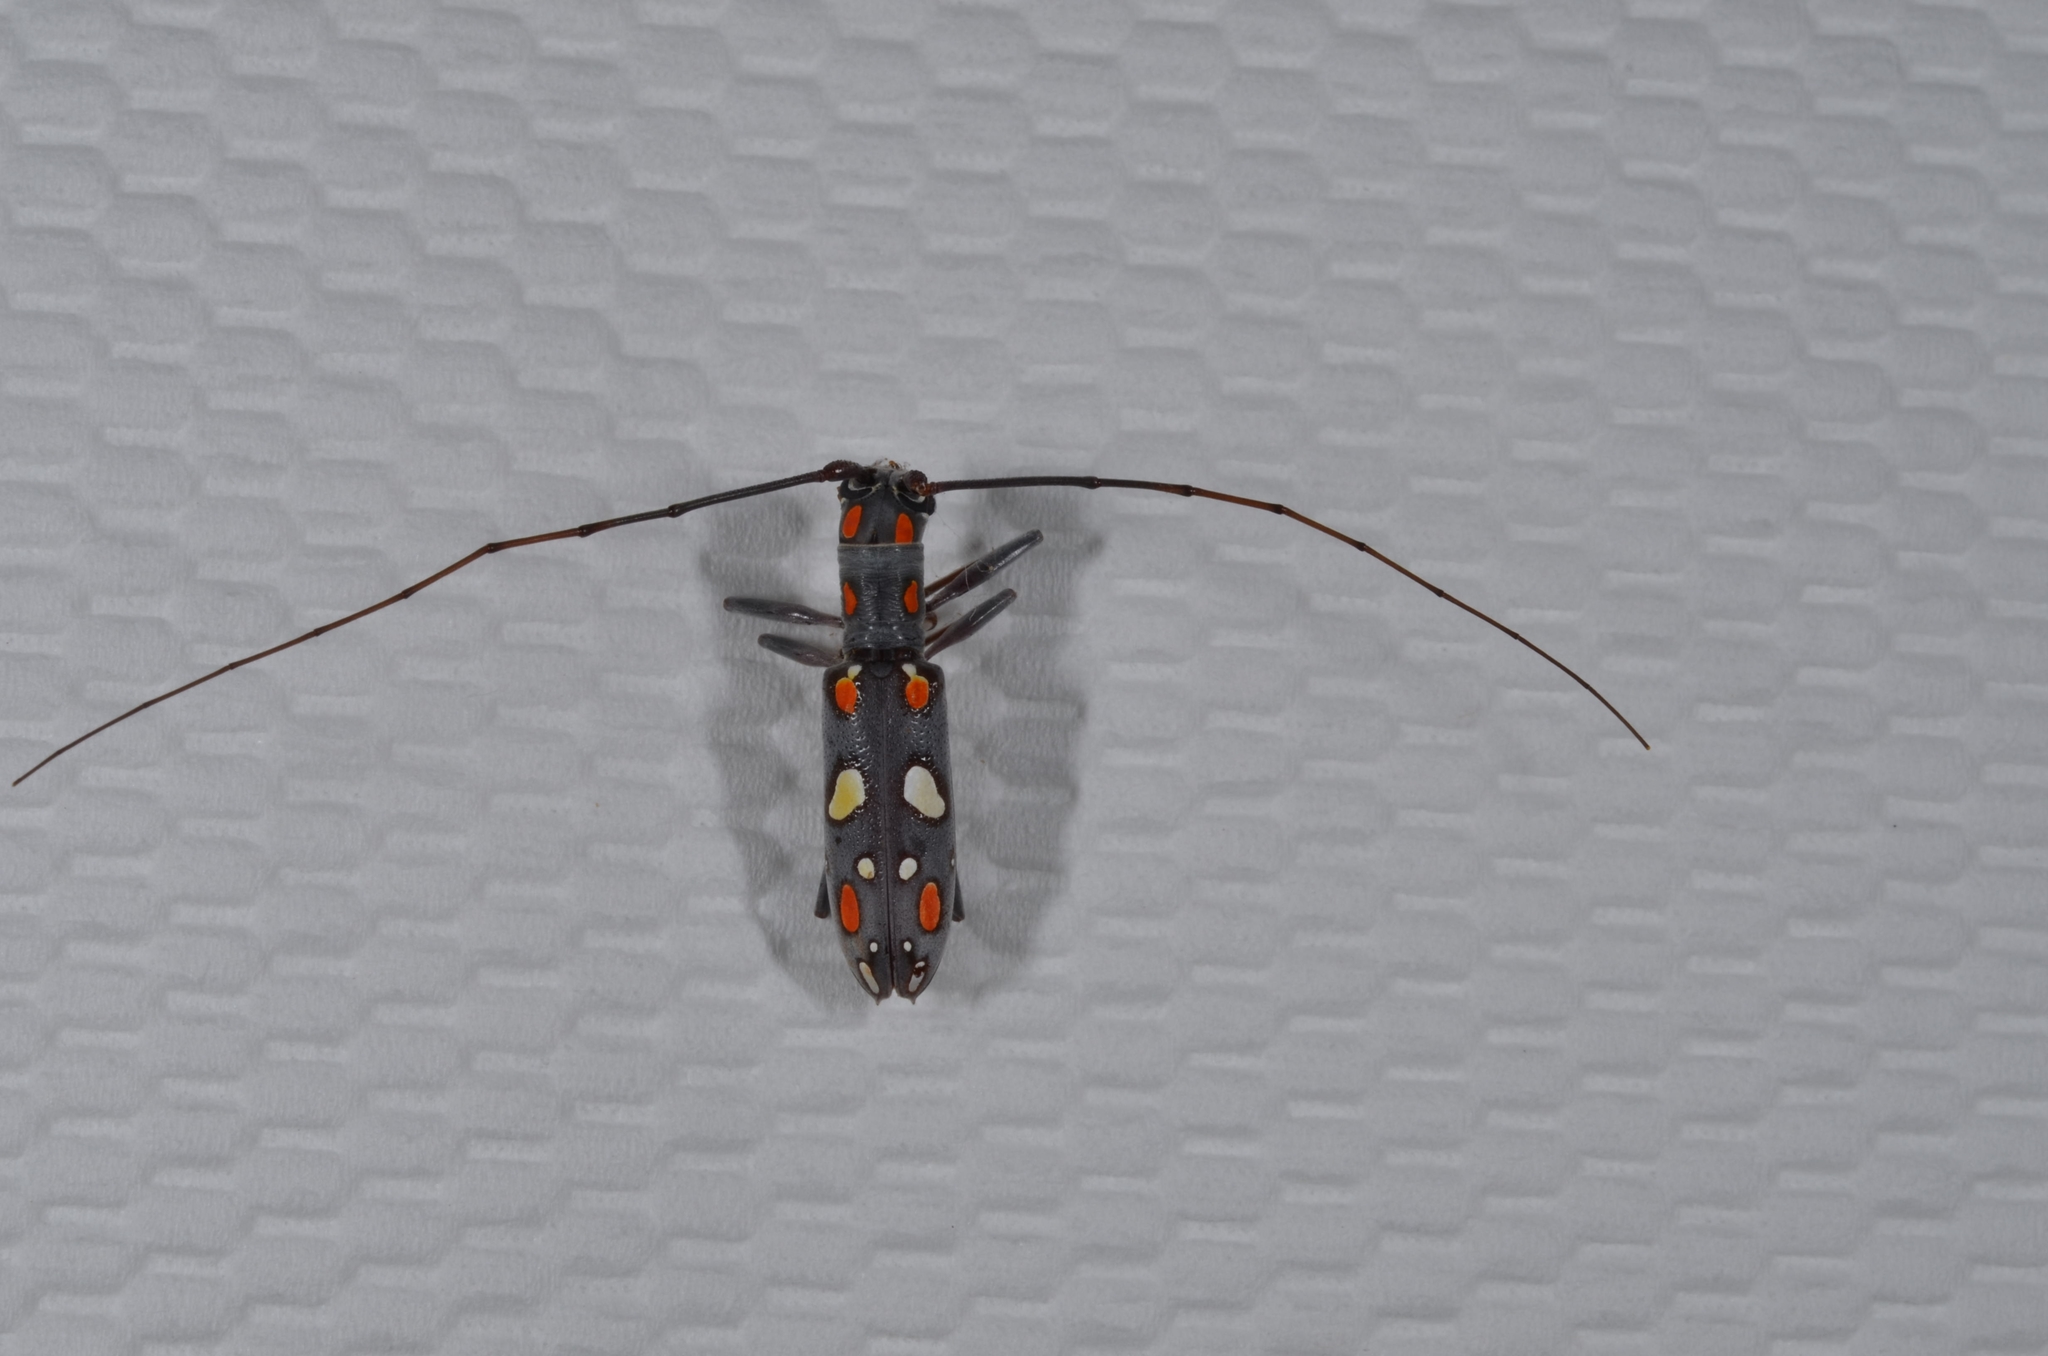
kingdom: Animalia
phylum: Arthropoda
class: Insecta
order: Coleoptera
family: Cerambycidae
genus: Cylindrepomus
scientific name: Cylindrepomus fouqueti
